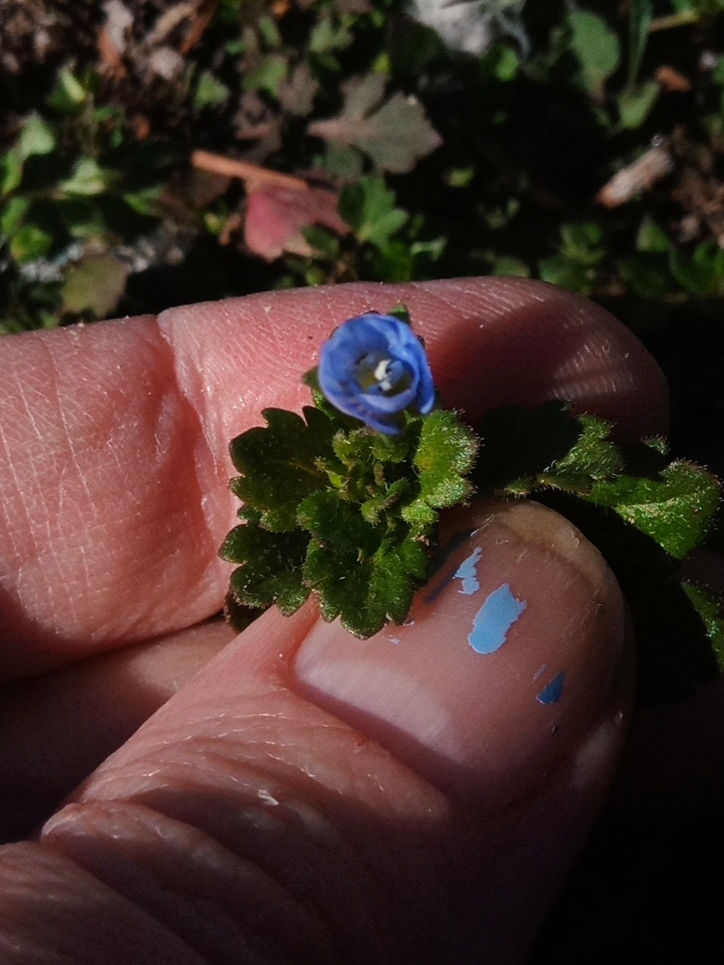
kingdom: Plantae
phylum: Tracheophyta
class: Magnoliopsida
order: Lamiales
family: Plantaginaceae
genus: Veronica
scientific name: Veronica persica
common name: Common field-speedwell
